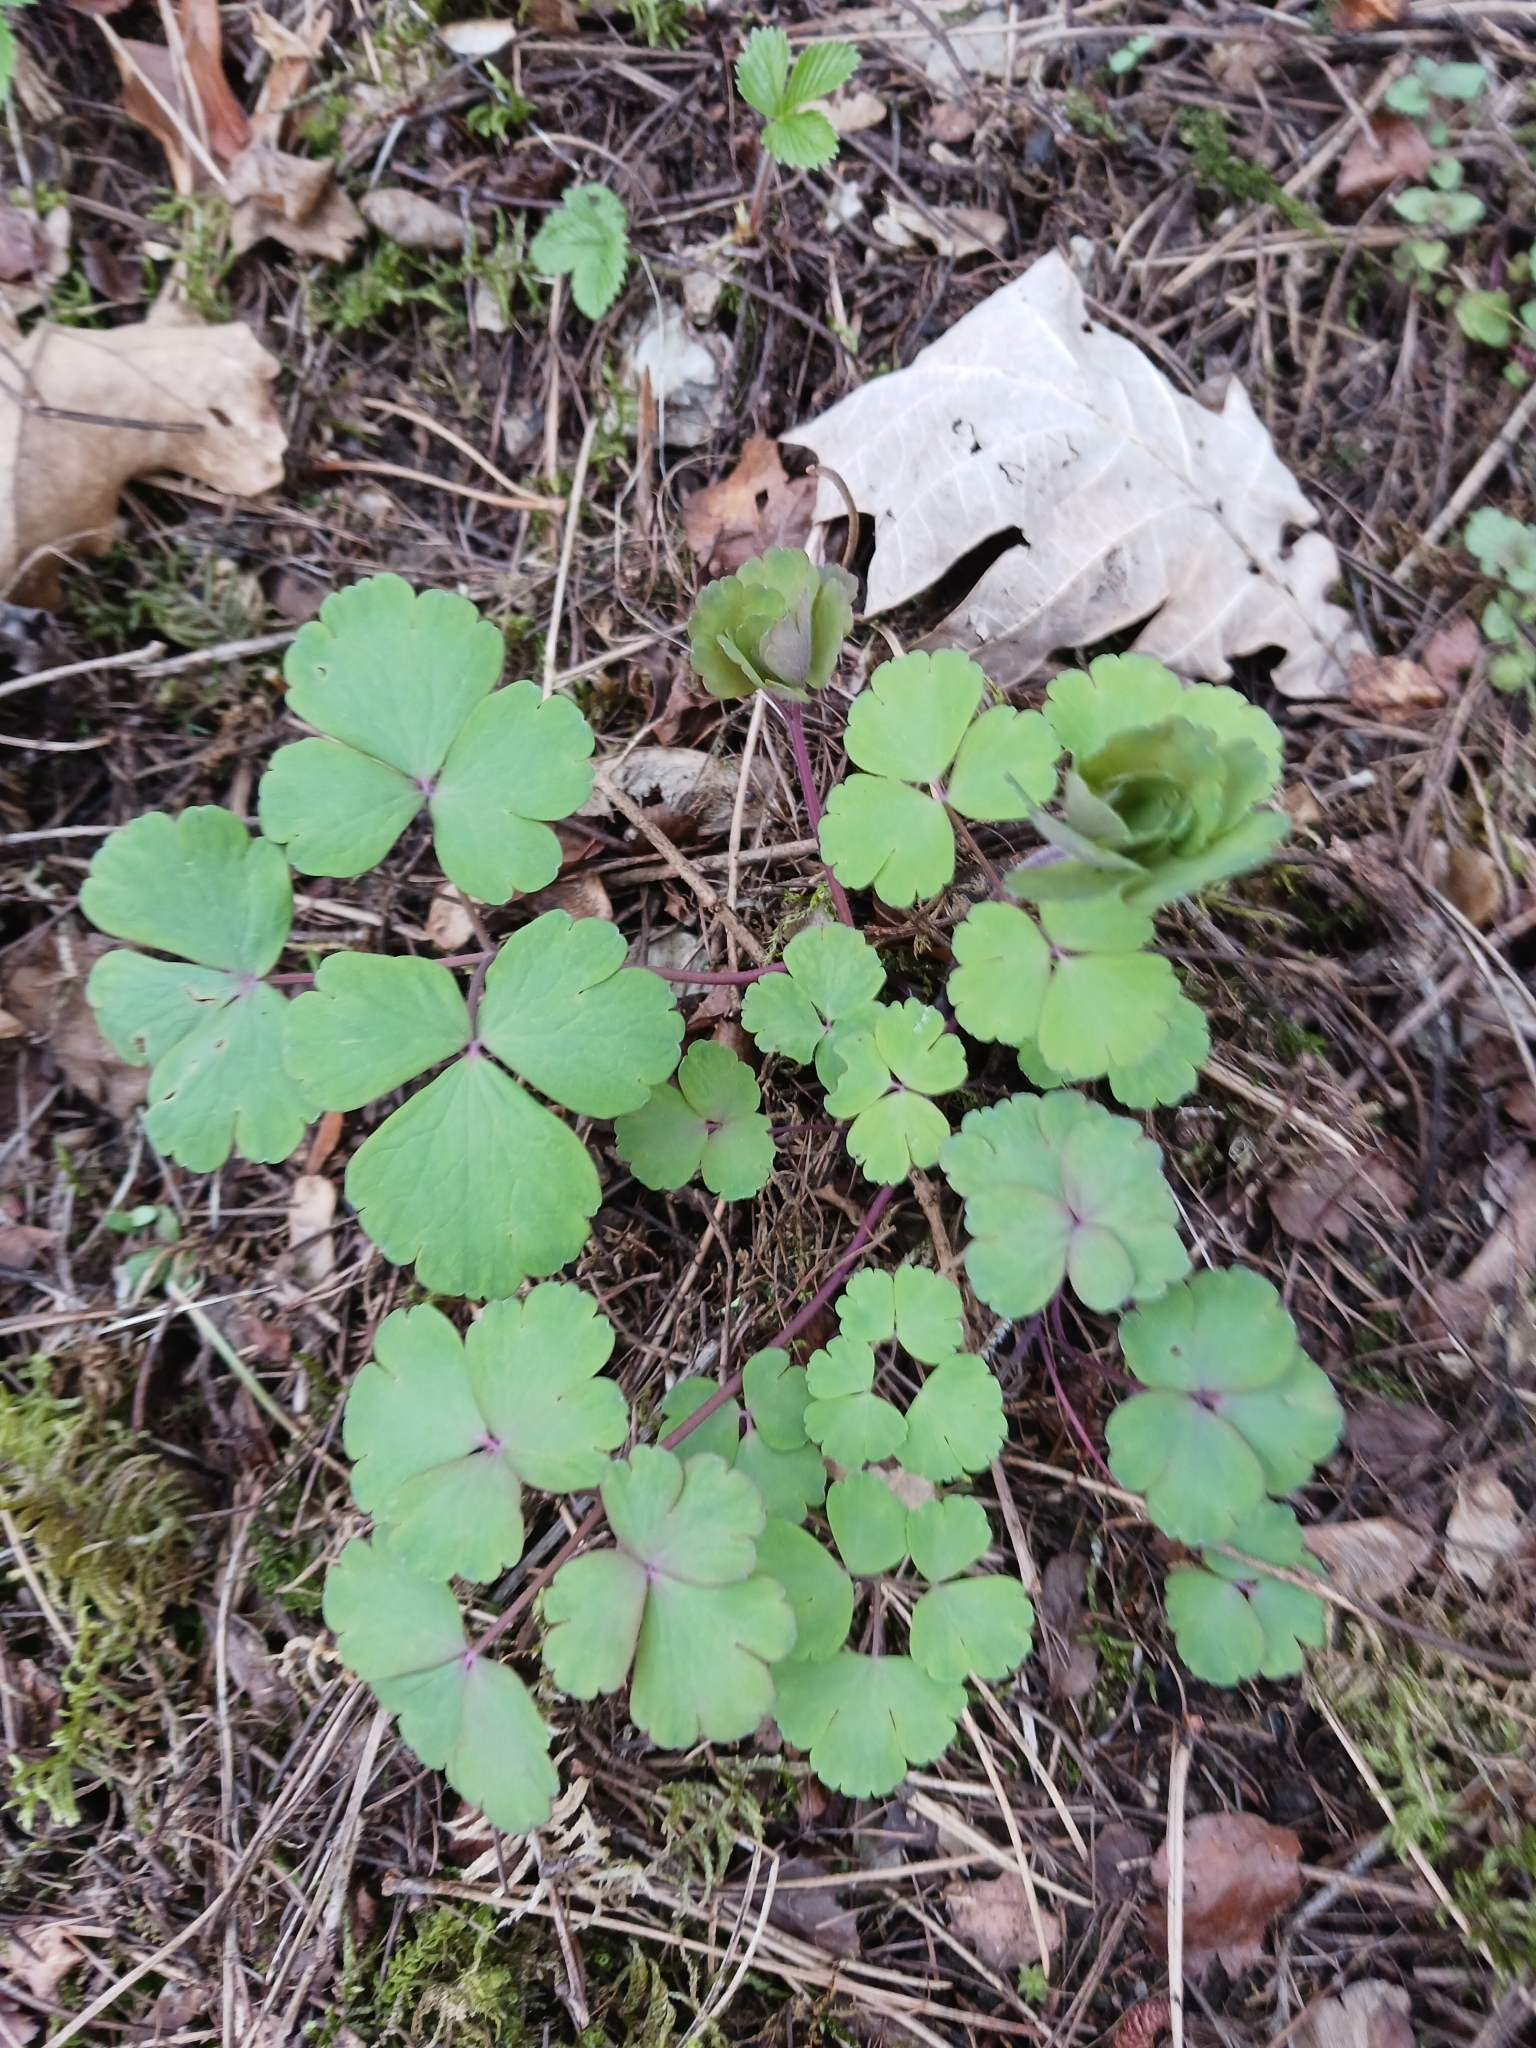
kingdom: Plantae
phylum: Tracheophyta
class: Magnoliopsida
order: Ranunculales
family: Ranunculaceae
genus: Aquilegia
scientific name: Aquilegia vulgaris
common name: Columbine
